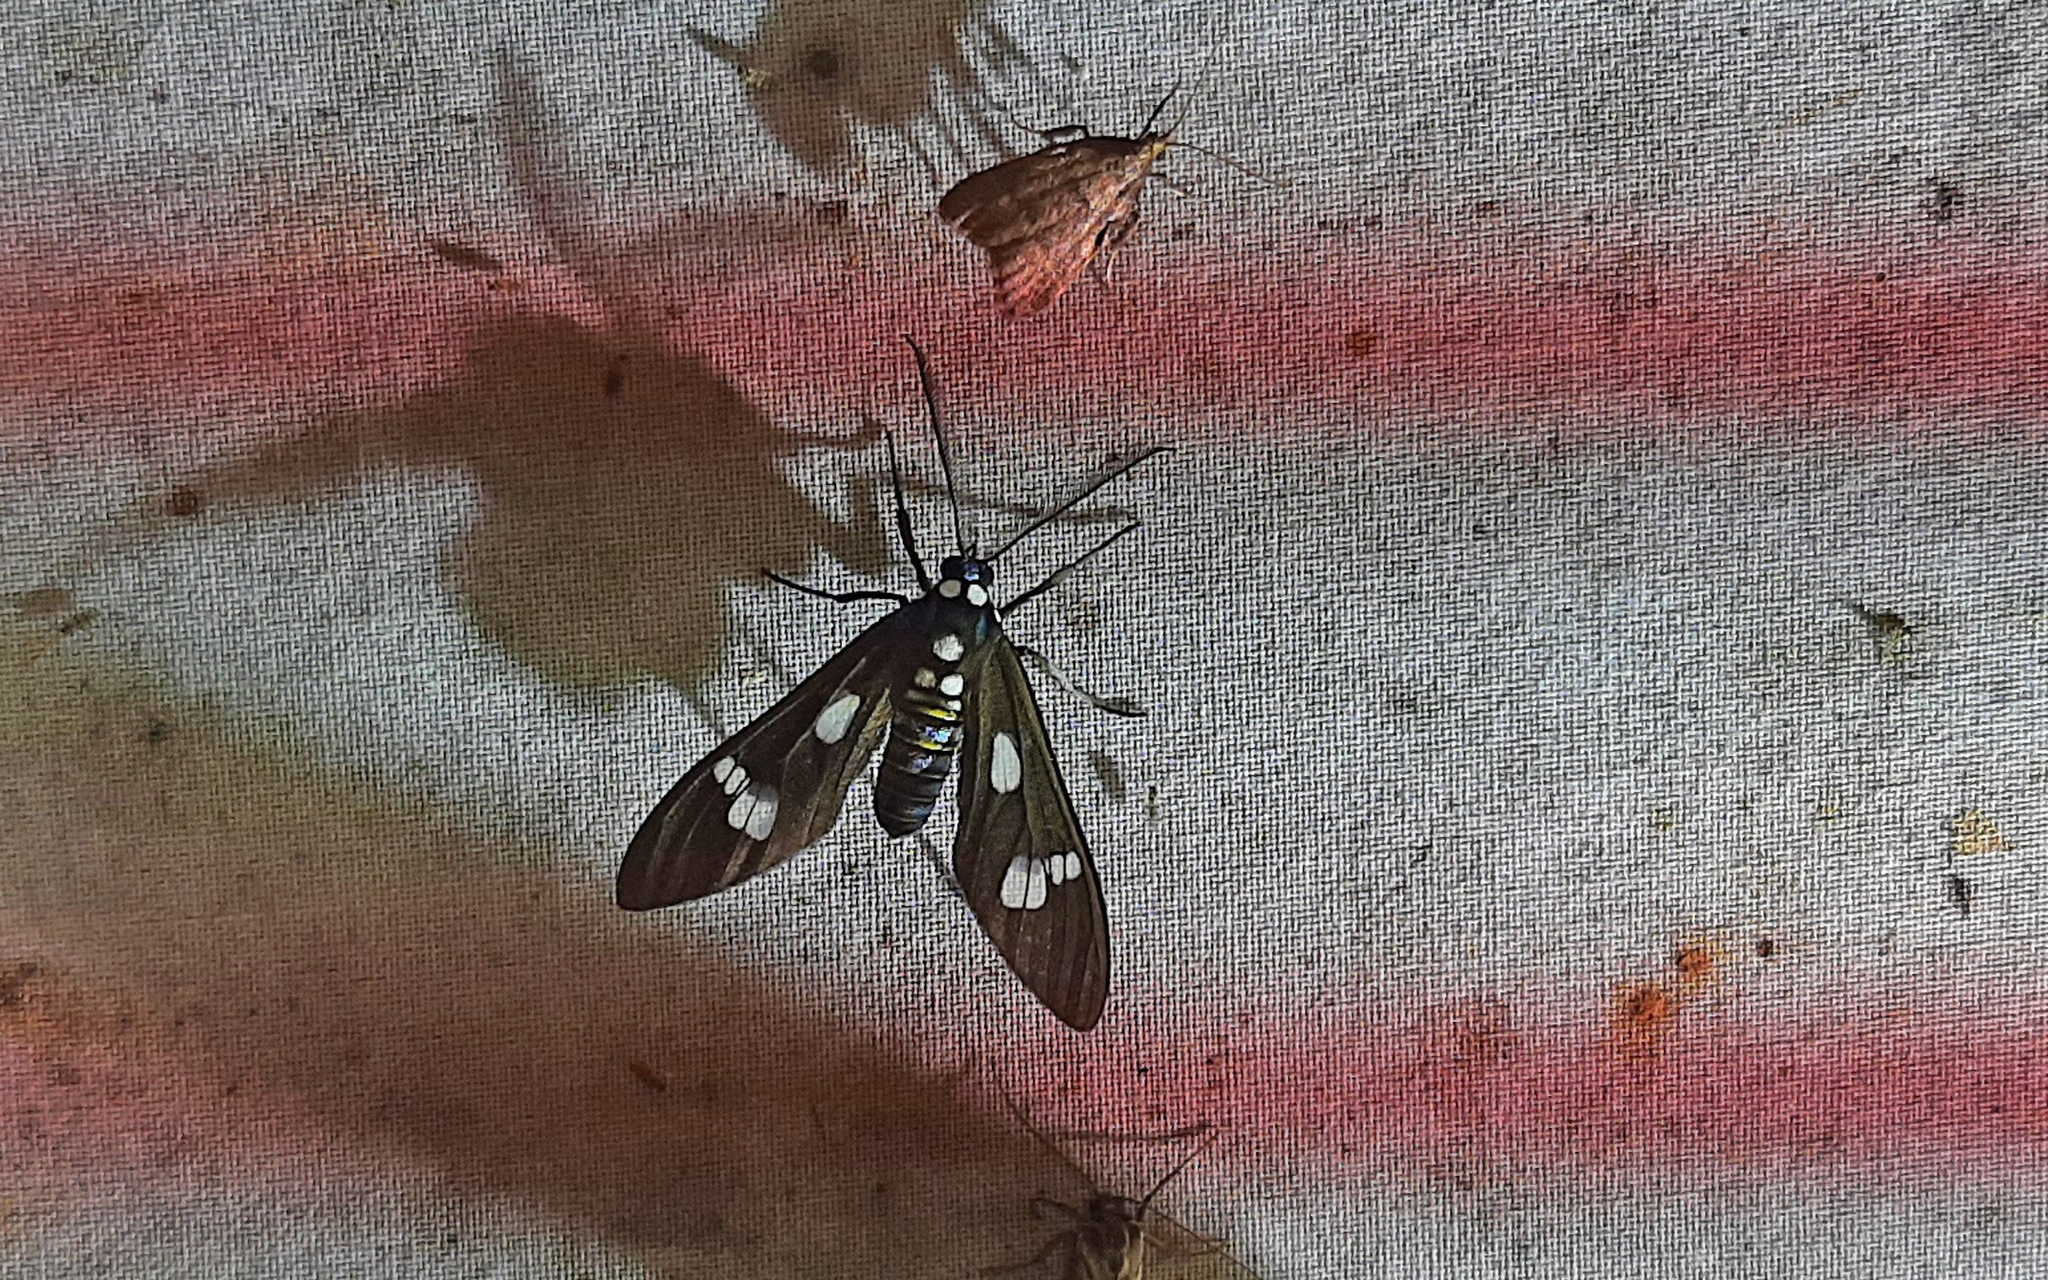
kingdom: Animalia
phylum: Arthropoda
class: Insecta
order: Lepidoptera
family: Erebidae
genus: Phaio
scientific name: Phaio acquiguttata
